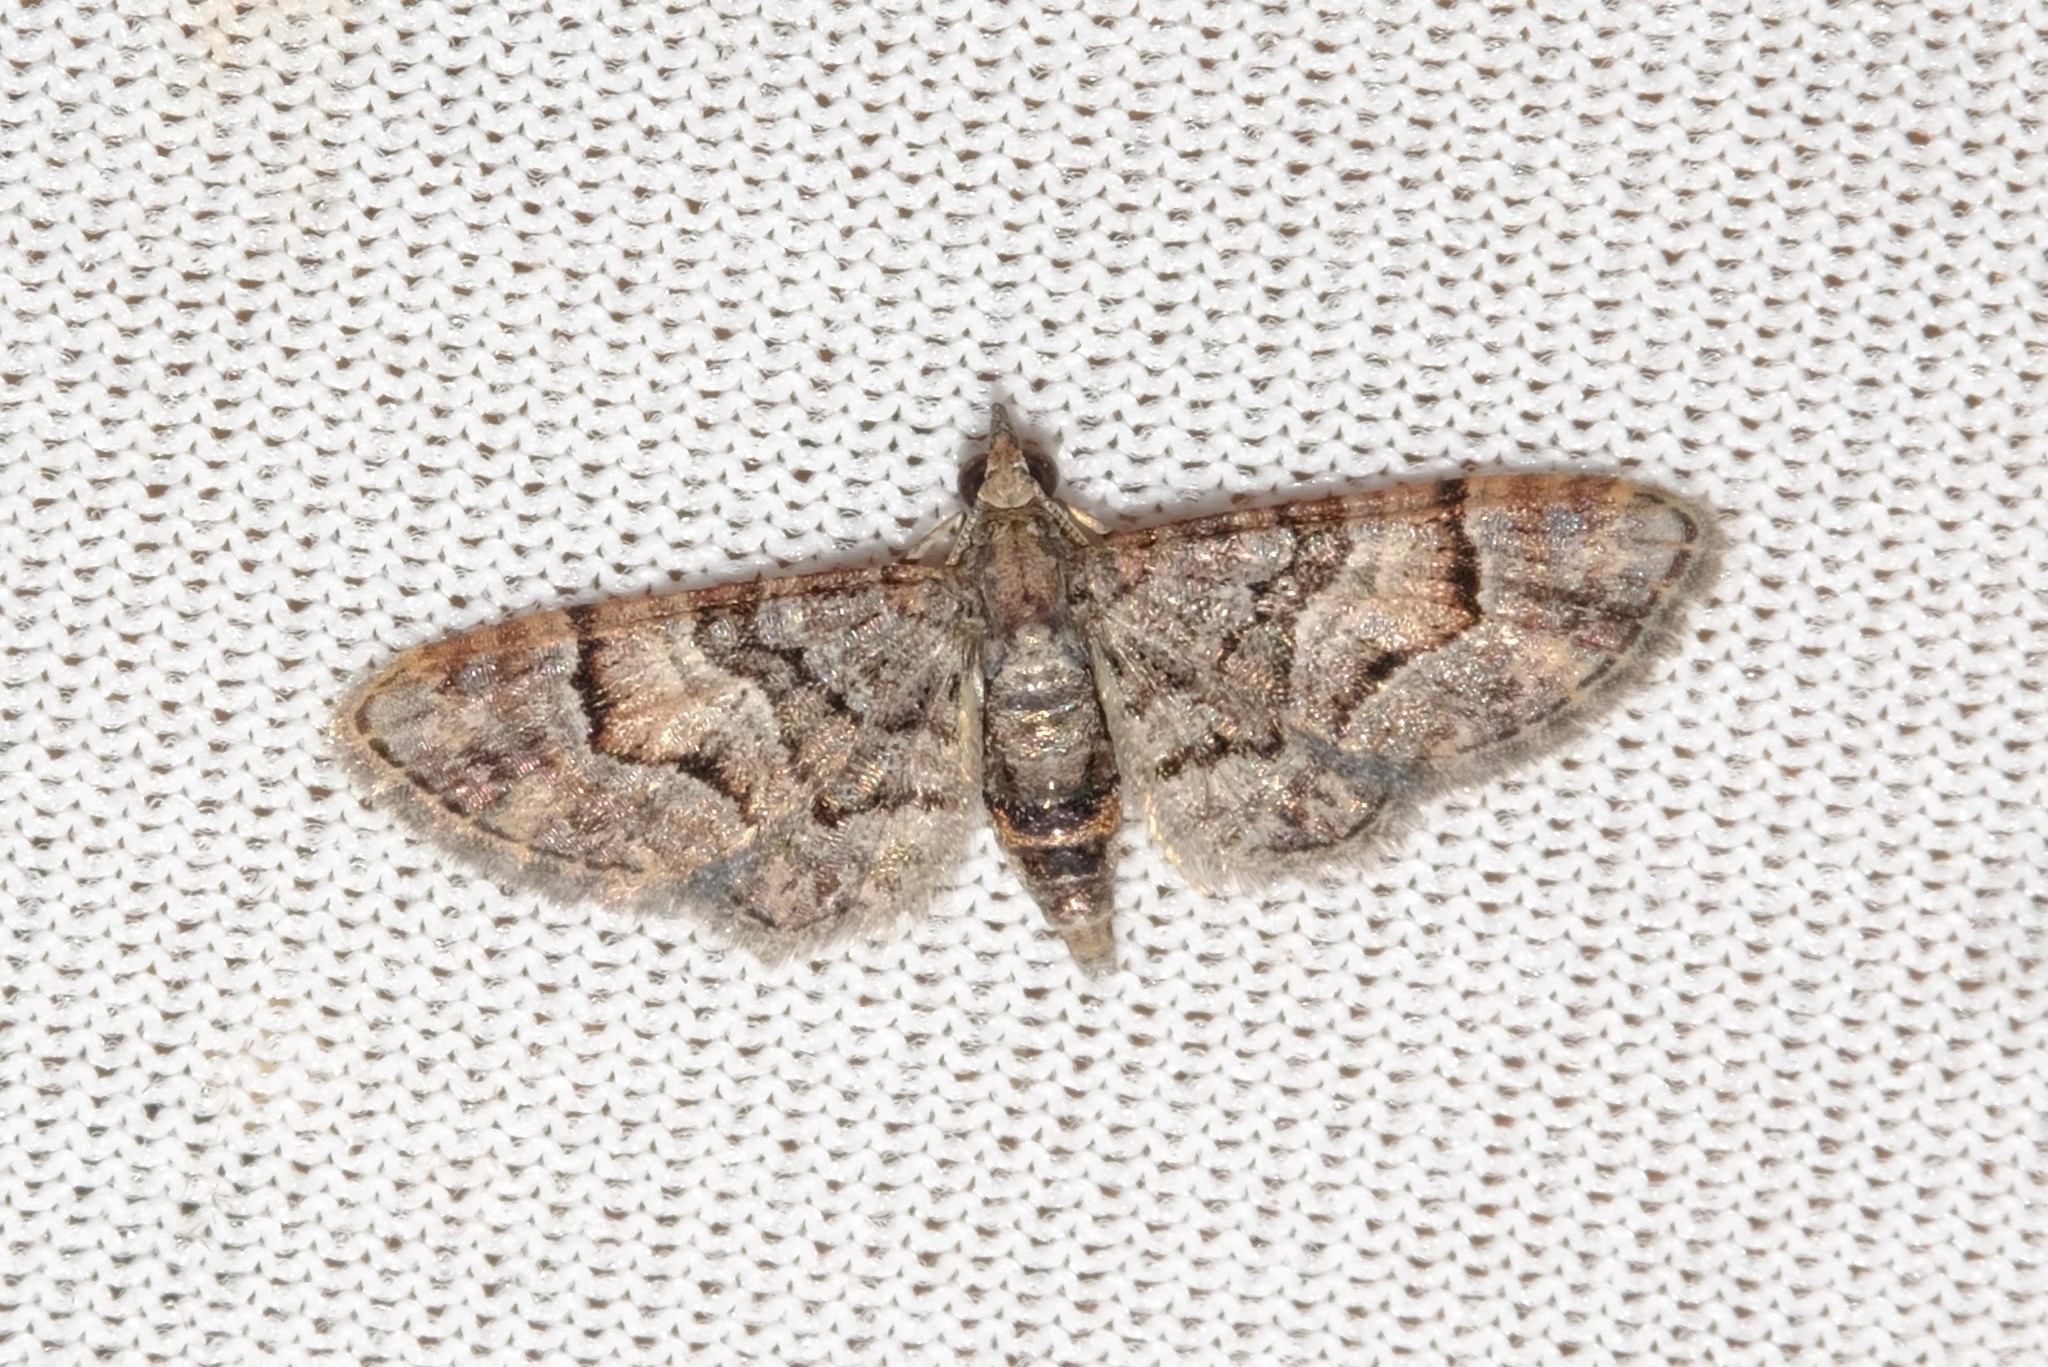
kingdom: Animalia
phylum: Arthropoda
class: Insecta
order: Lepidoptera
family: Geometridae
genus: Chloroclystis
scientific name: Chloroclystis metallospora
